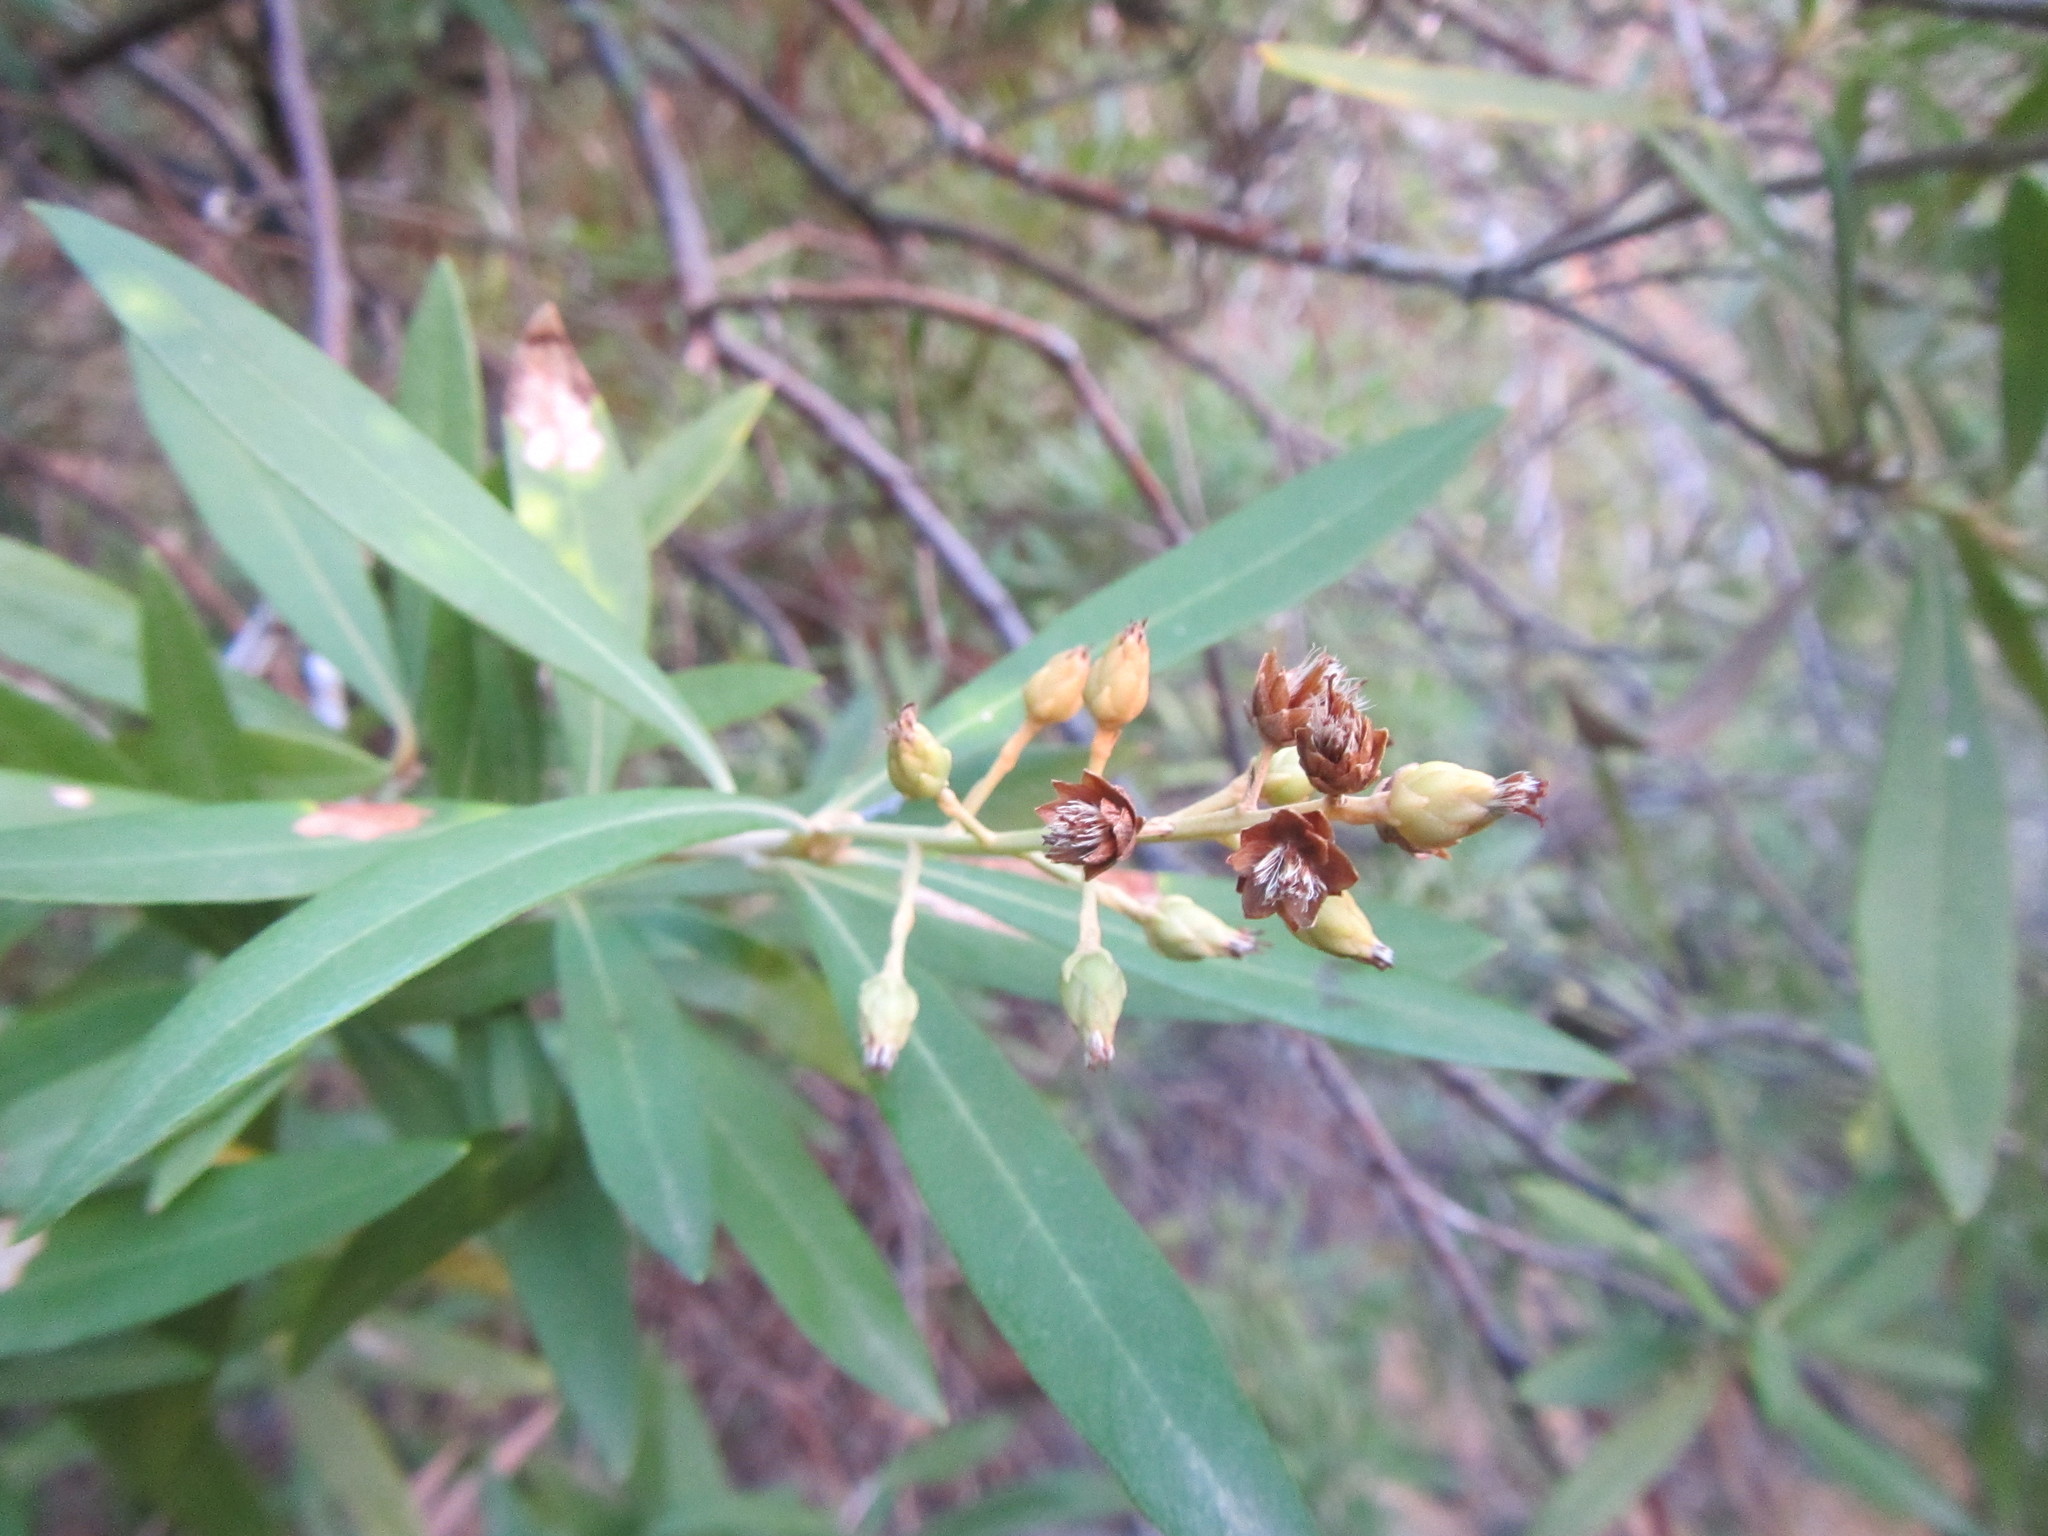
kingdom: Plantae
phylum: Tracheophyta
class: Magnoliopsida
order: Asterales
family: Asteraceae
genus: Brachylaena
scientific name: Brachylaena neriifolia
